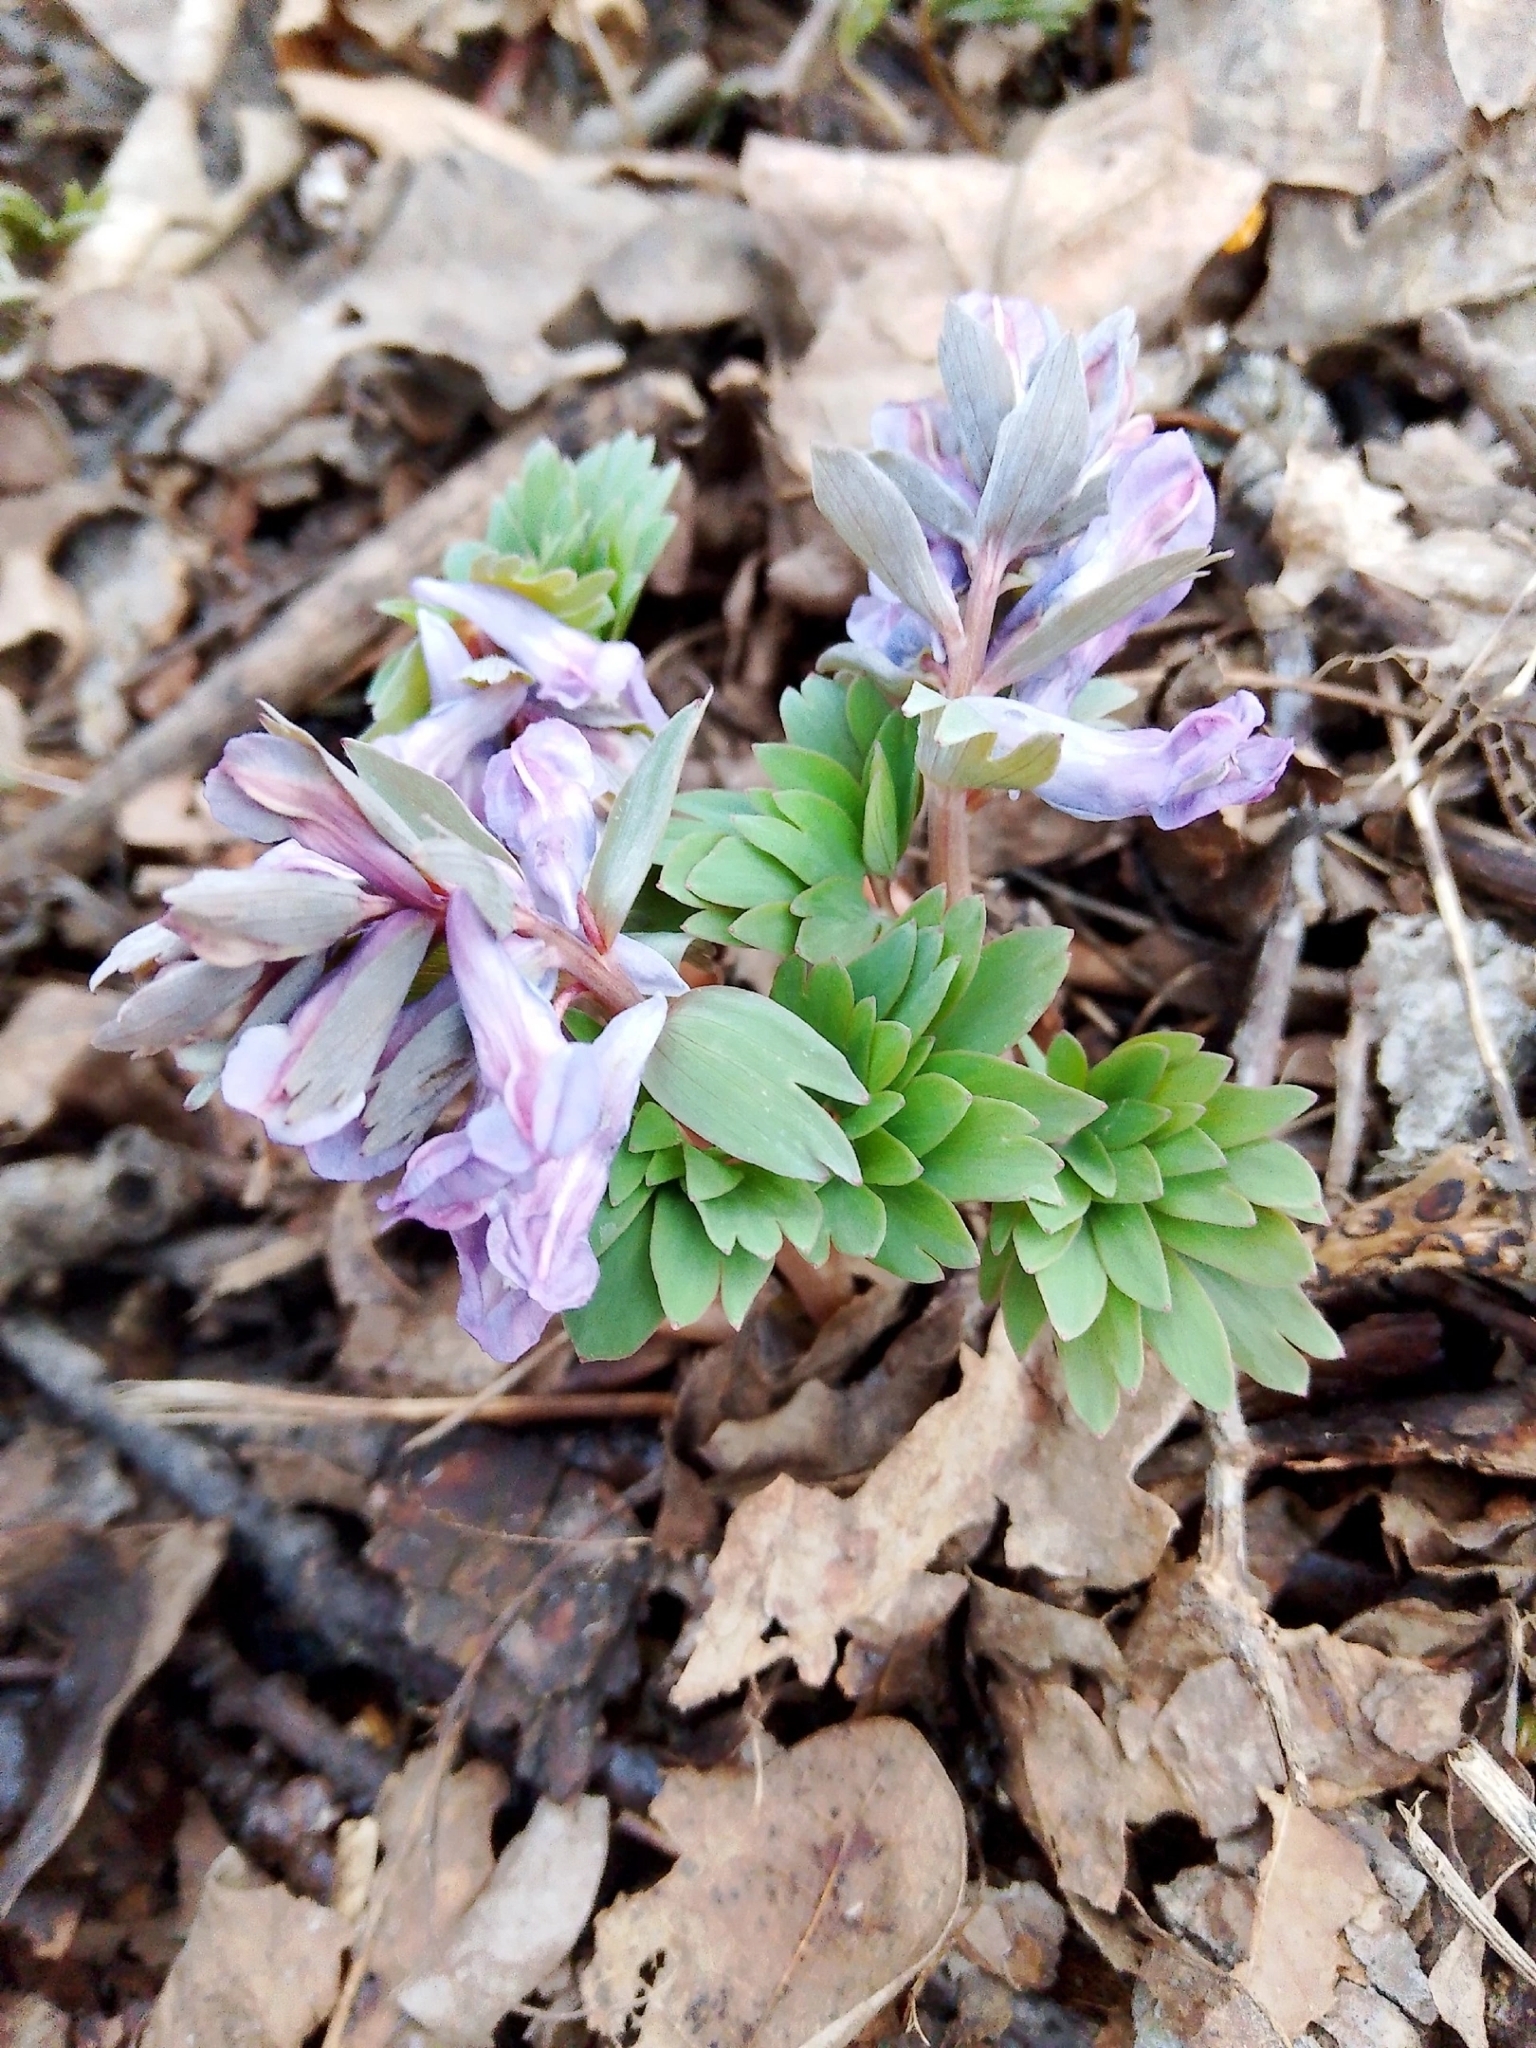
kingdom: Plantae
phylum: Tracheophyta
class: Magnoliopsida
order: Ranunculales
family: Papaveraceae
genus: Corydalis
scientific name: Corydalis solida
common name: Bird-in-a-bush
